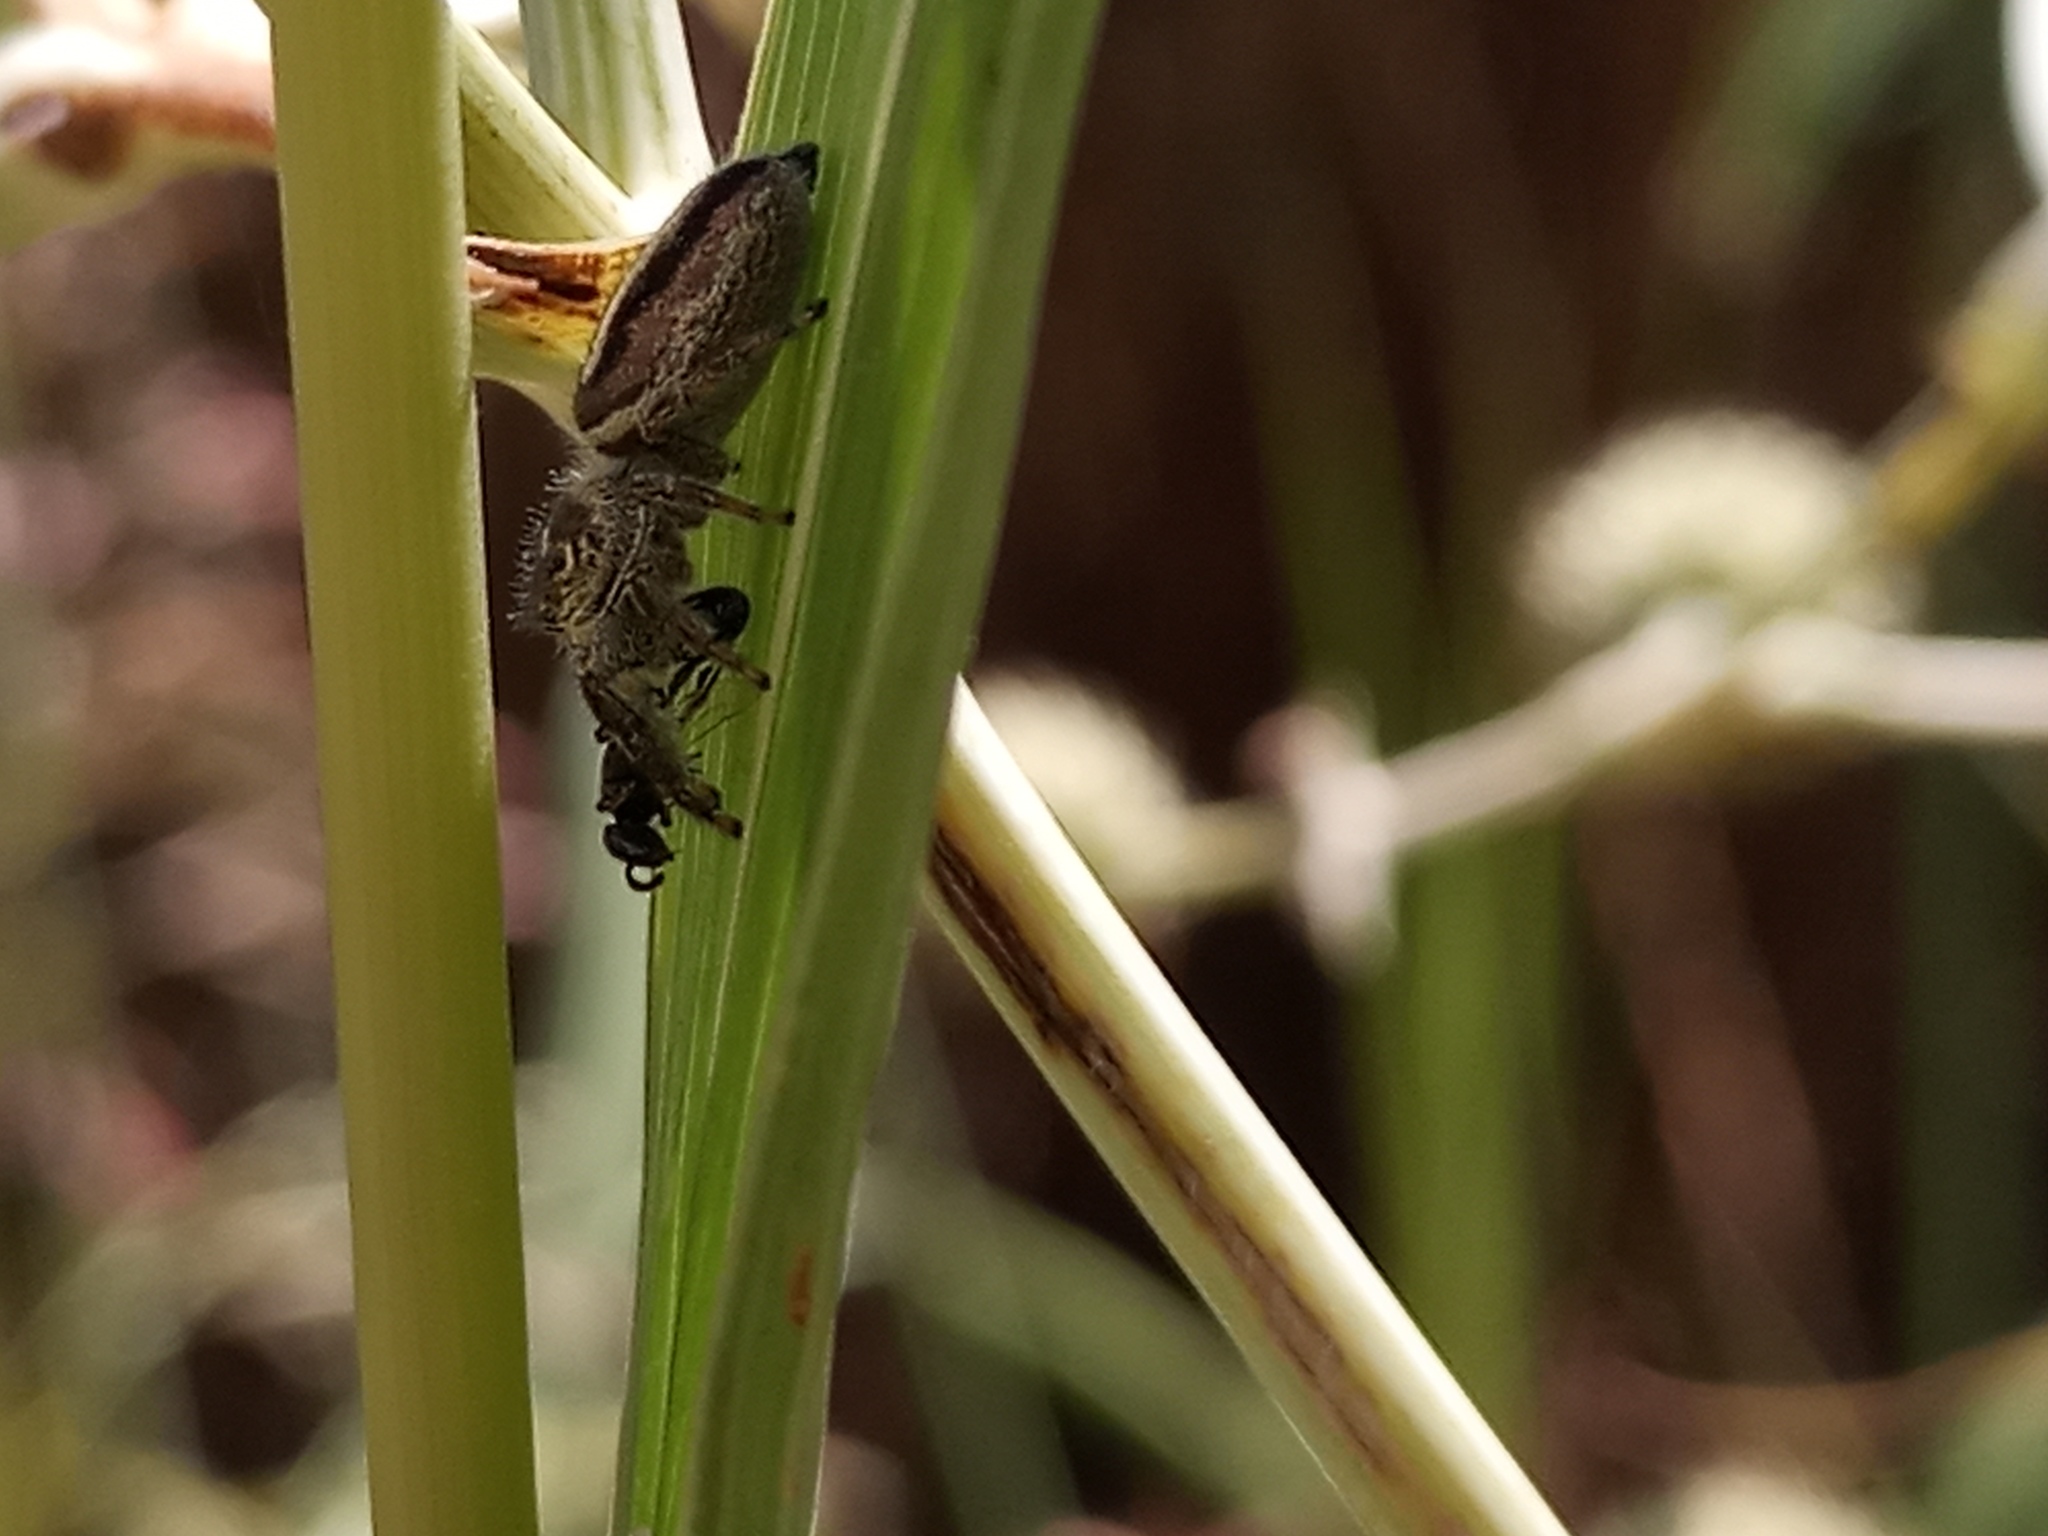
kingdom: Animalia
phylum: Arthropoda
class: Arachnida
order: Araneae
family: Salticidae
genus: Dendryphantes
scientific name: Dendryphantes mordax
